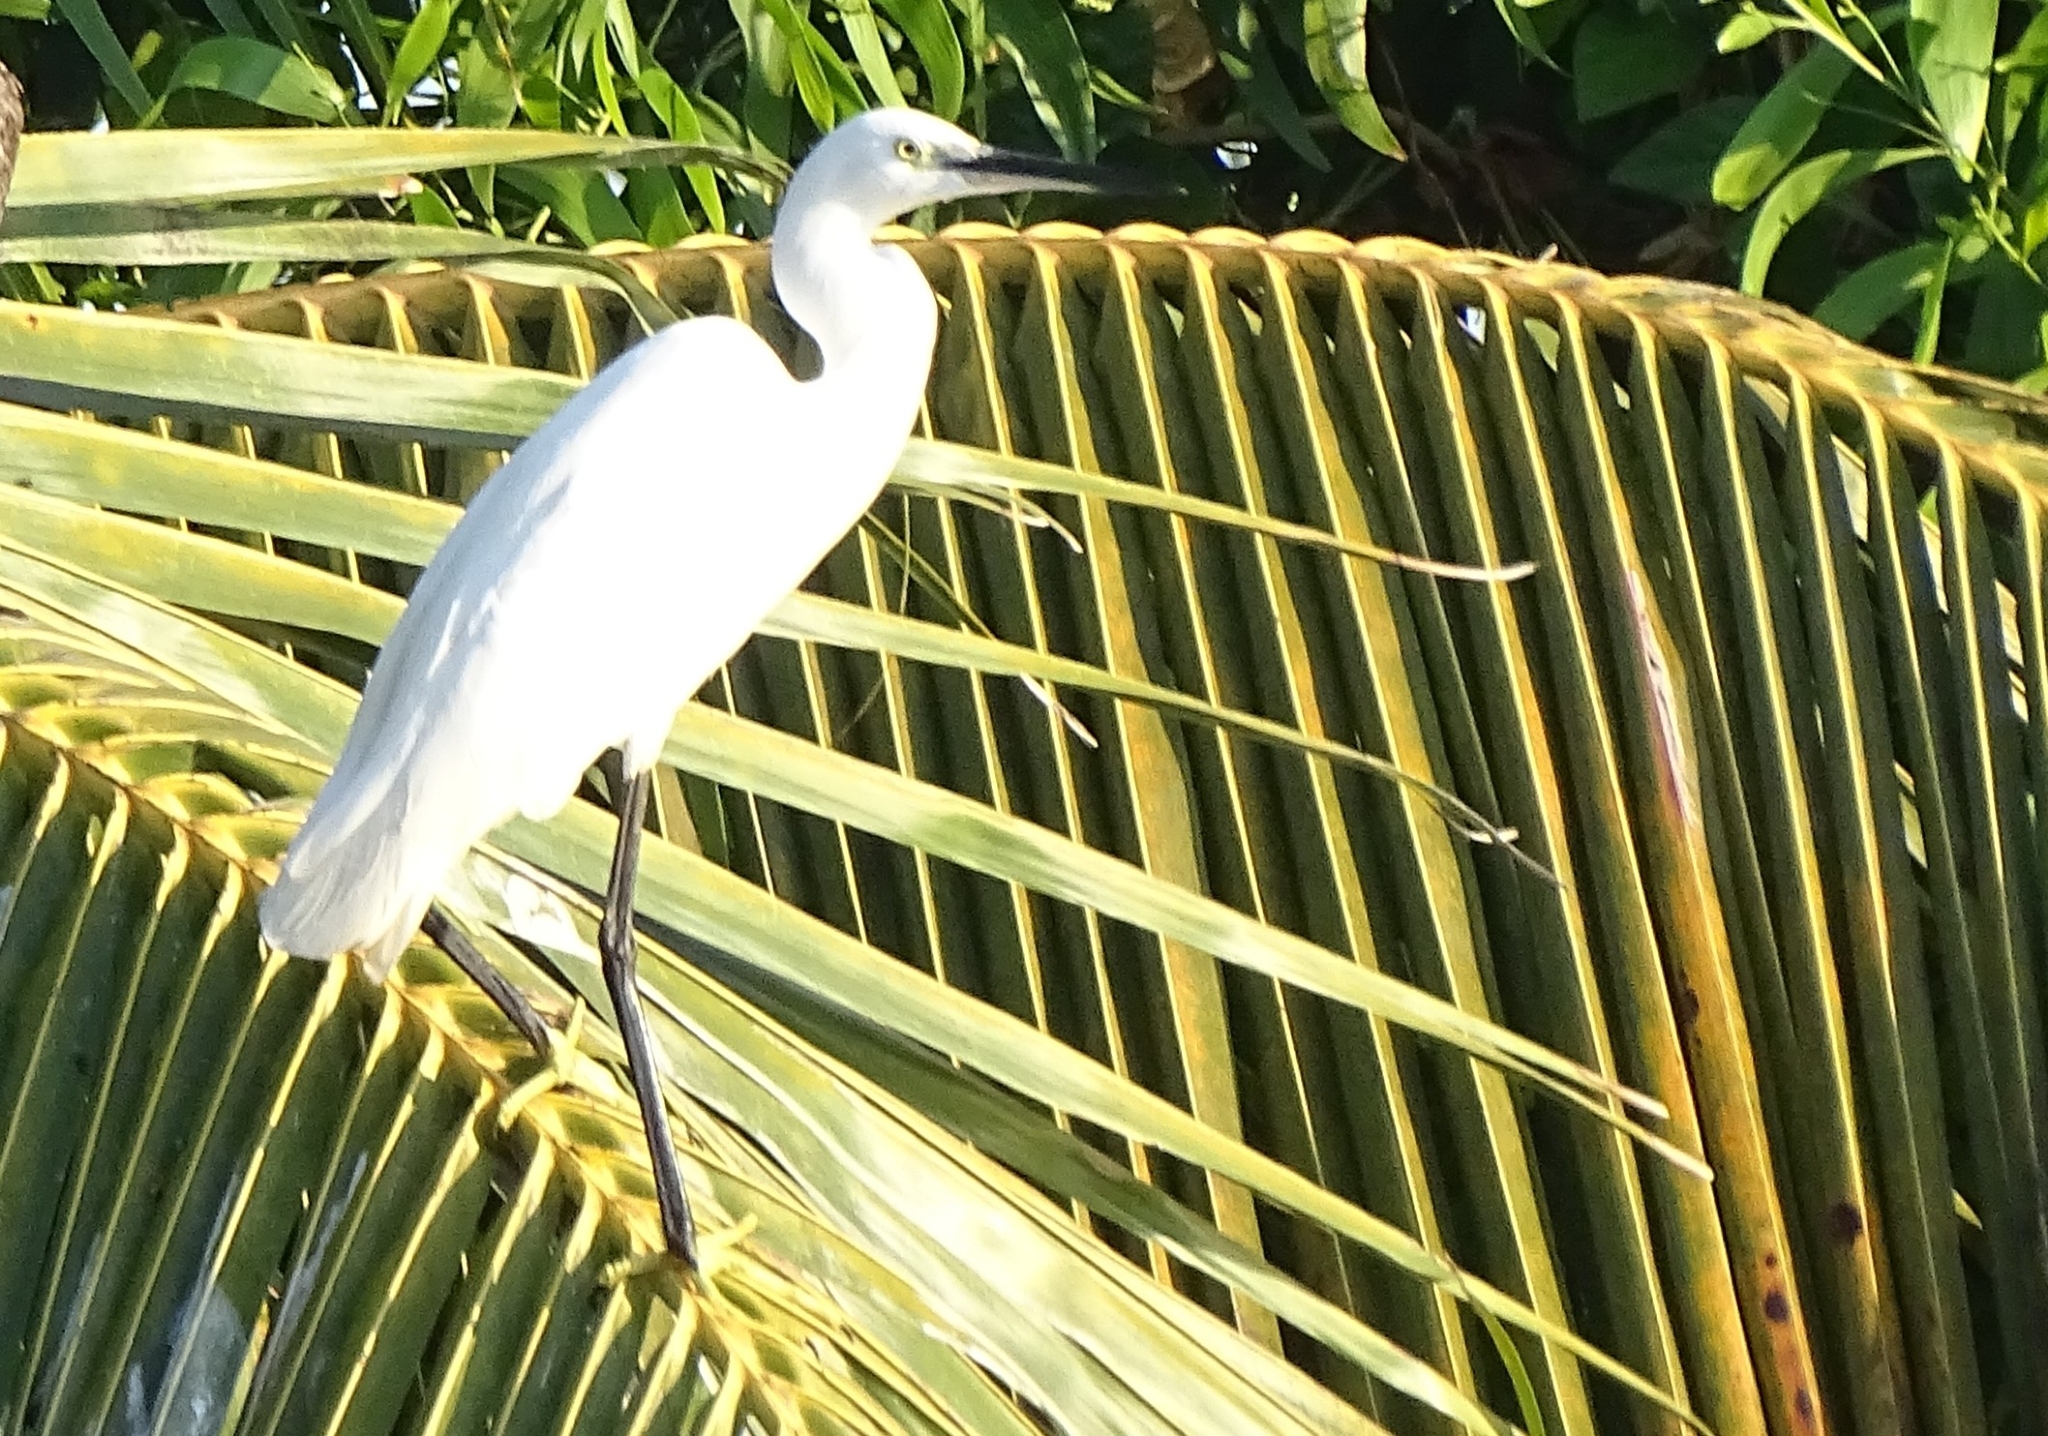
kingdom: Animalia
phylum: Chordata
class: Aves
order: Pelecaniformes
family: Ardeidae
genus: Egretta
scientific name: Egretta garzetta
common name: Little egret
